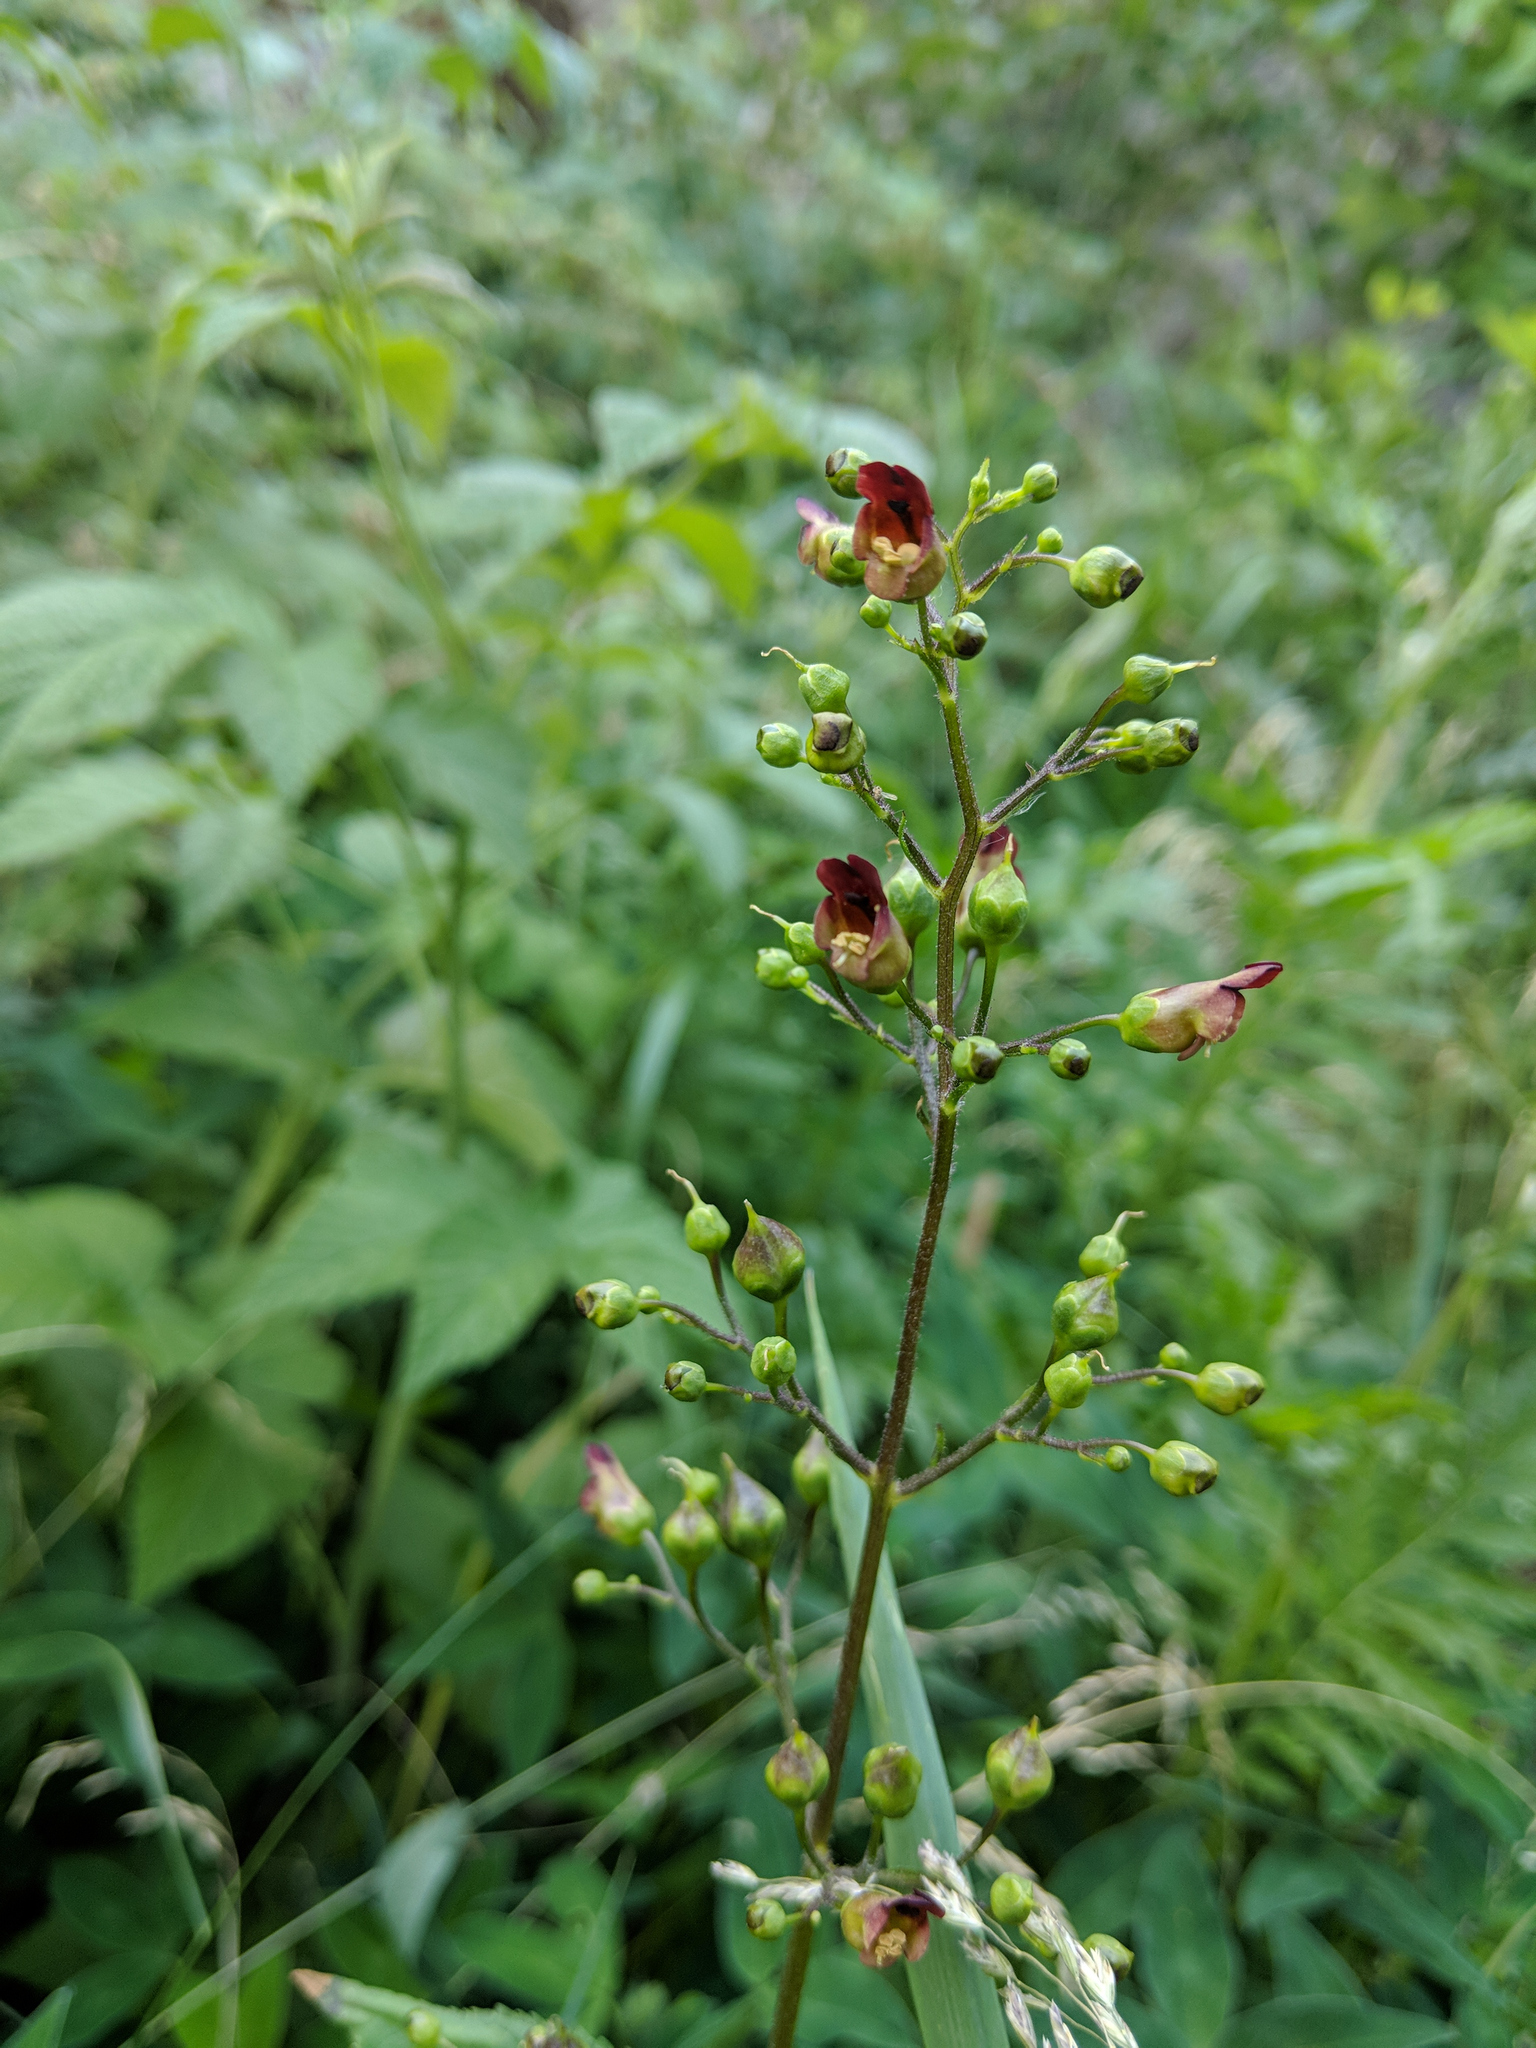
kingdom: Plantae
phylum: Tracheophyta
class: Magnoliopsida
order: Lamiales
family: Scrophulariaceae
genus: Scrophularia
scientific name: Scrophularia nodosa
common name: Common figwort
